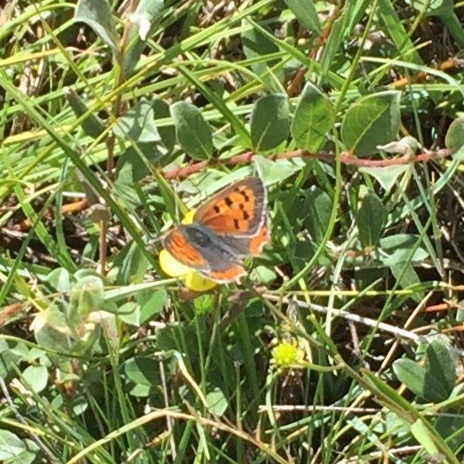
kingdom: Animalia
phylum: Arthropoda
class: Insecta
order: Lepidoptera
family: Lycaenidae
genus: Lycaena
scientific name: Lycaena phlaeas
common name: Small copper
